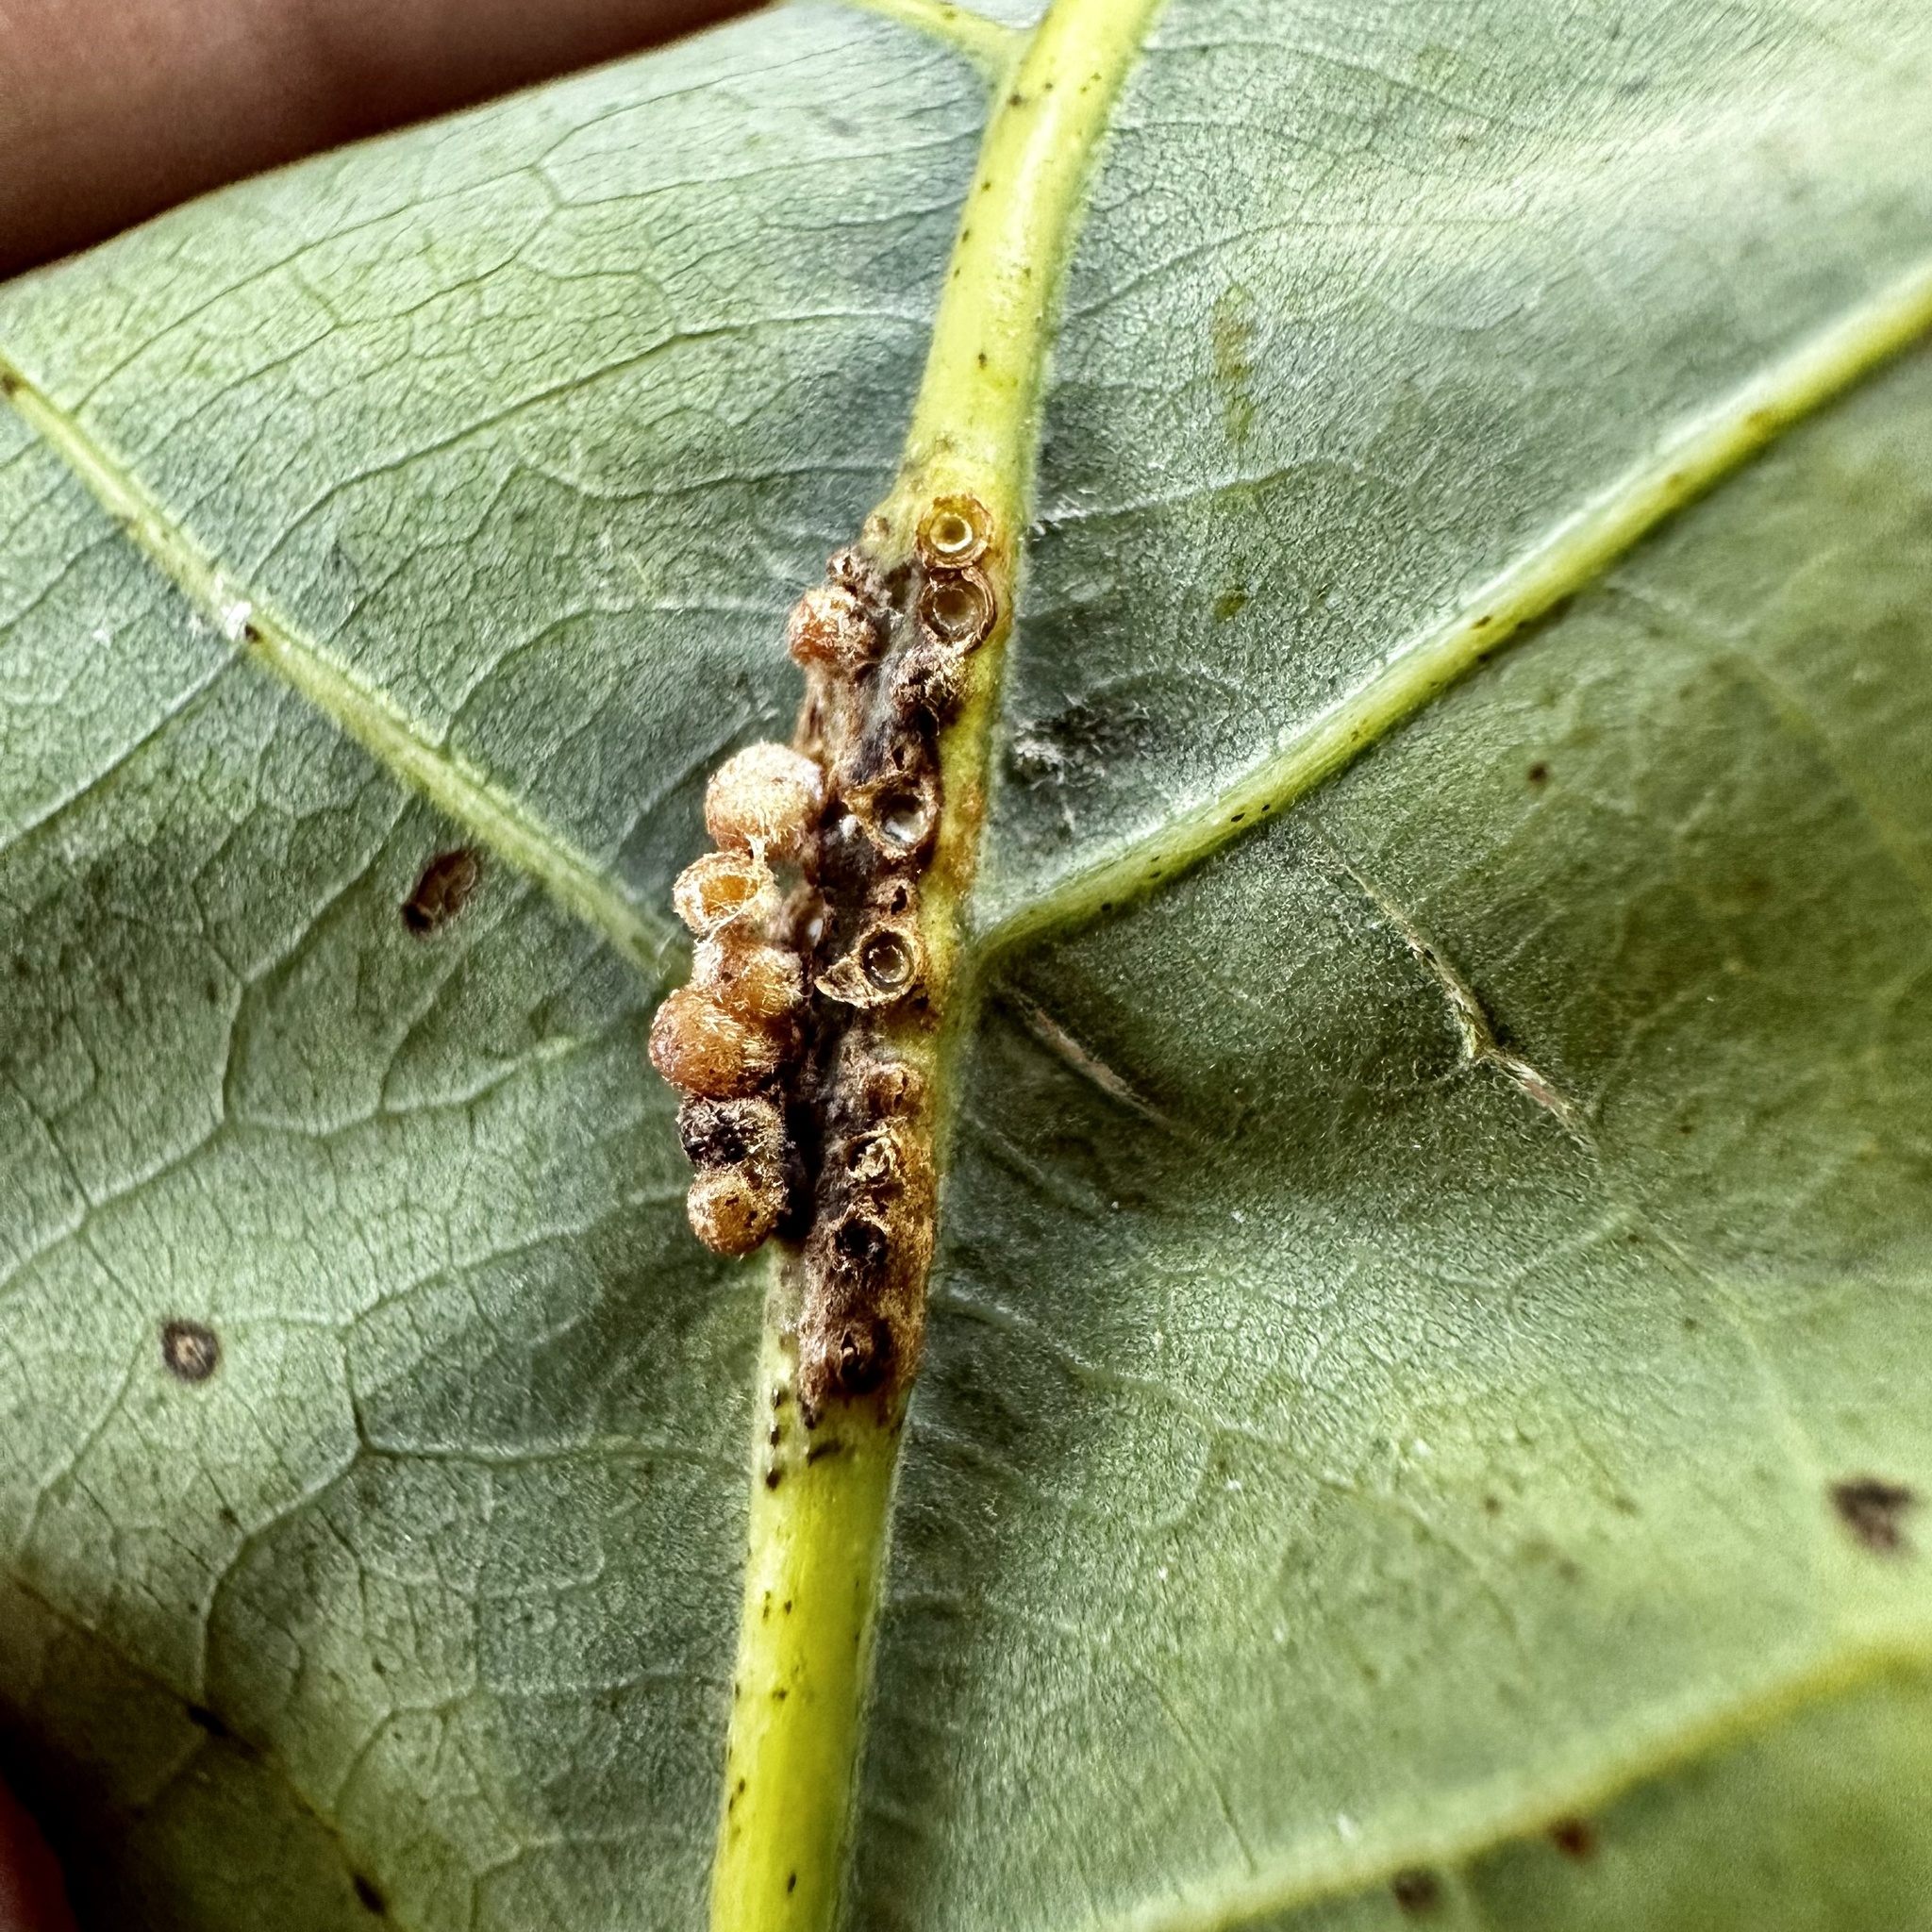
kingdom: Animalia
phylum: Arthropoda
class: Insecta
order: Hymenoptera
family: Cynipidae
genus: Andricus
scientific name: Andricus
